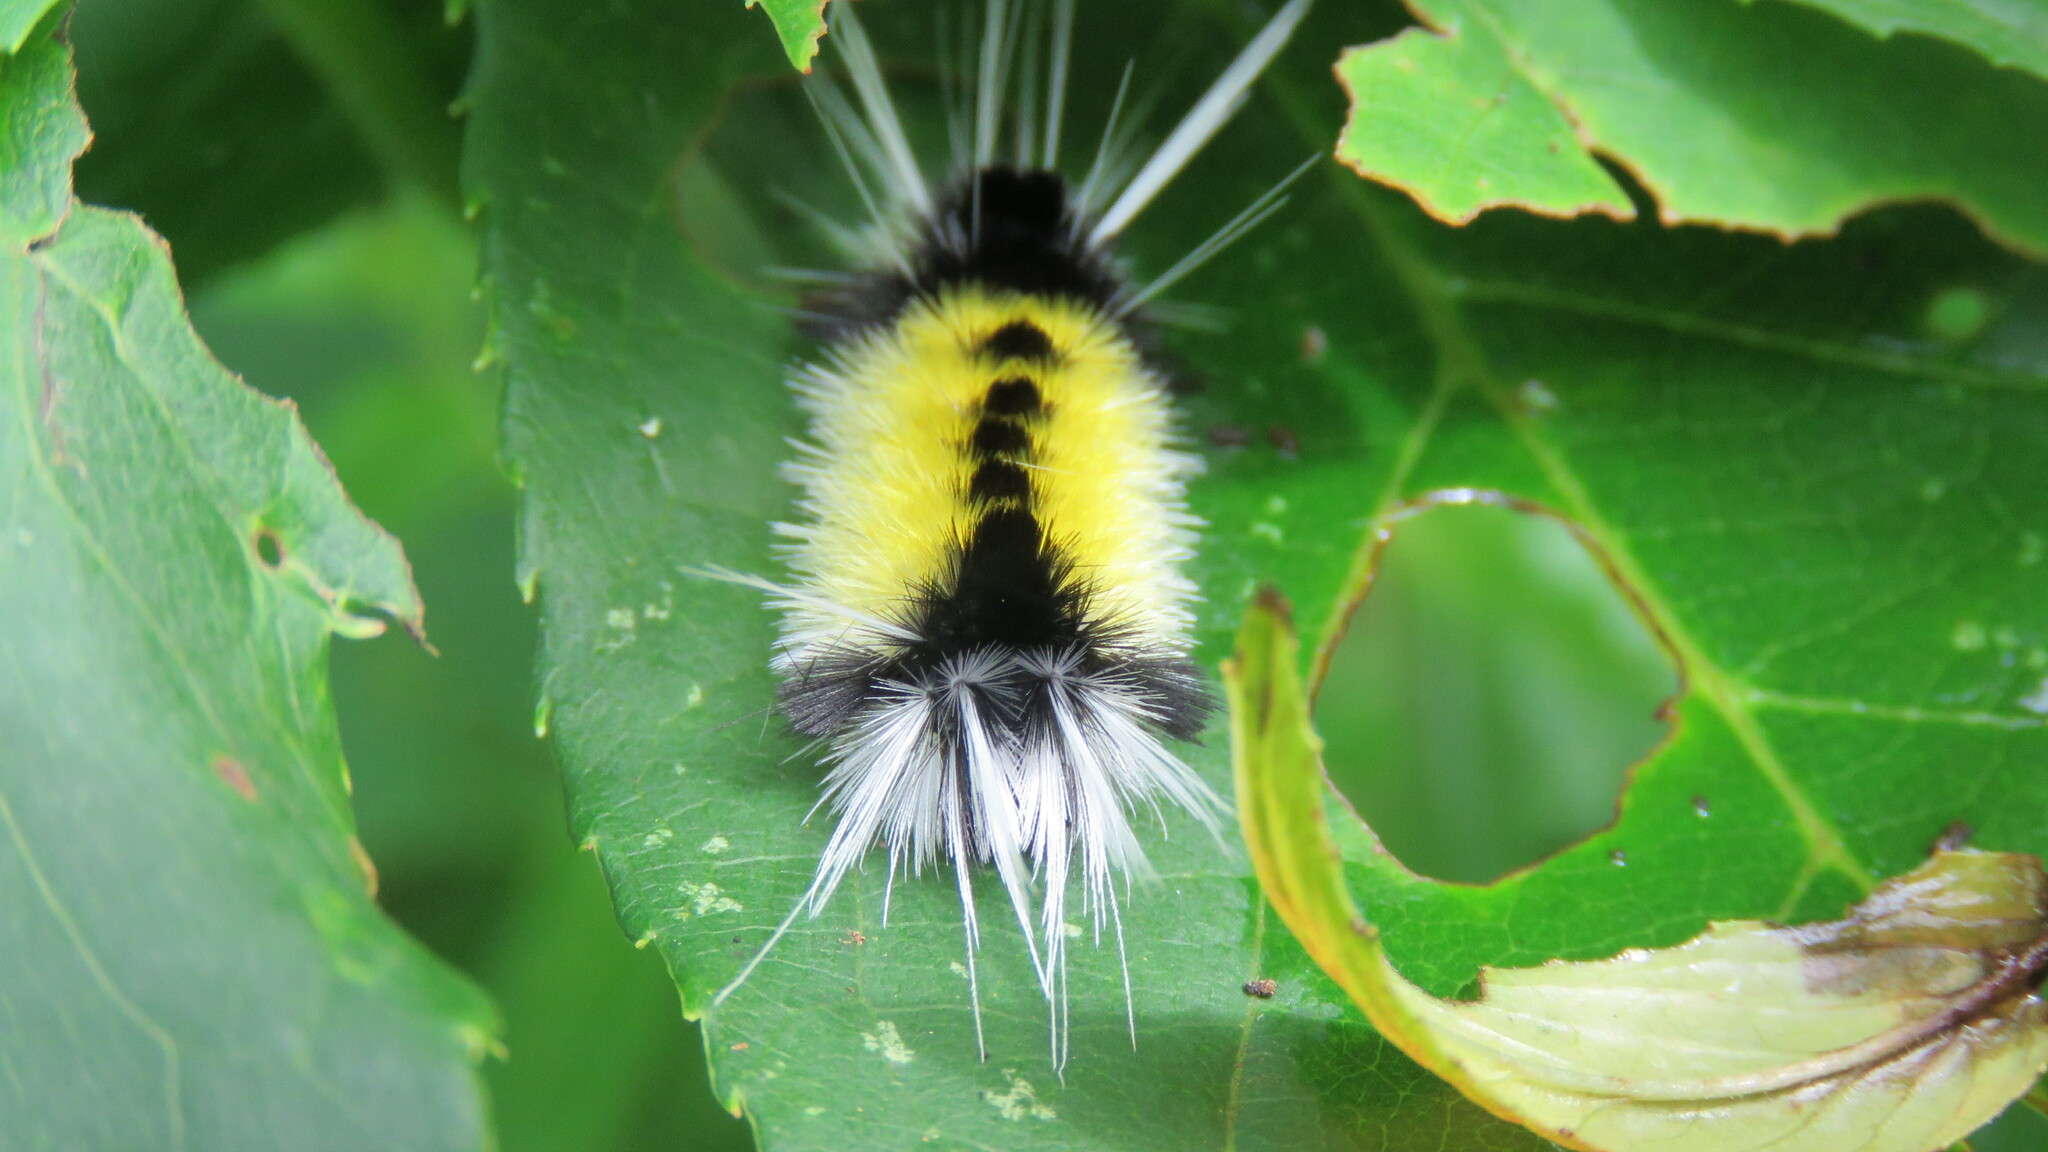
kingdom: Animalia
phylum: Arthropoda
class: Insecta
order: Lepidoptera
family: Erebidae
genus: Lophocampa
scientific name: Lophocampa maculata
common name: Spotted tussock moth
